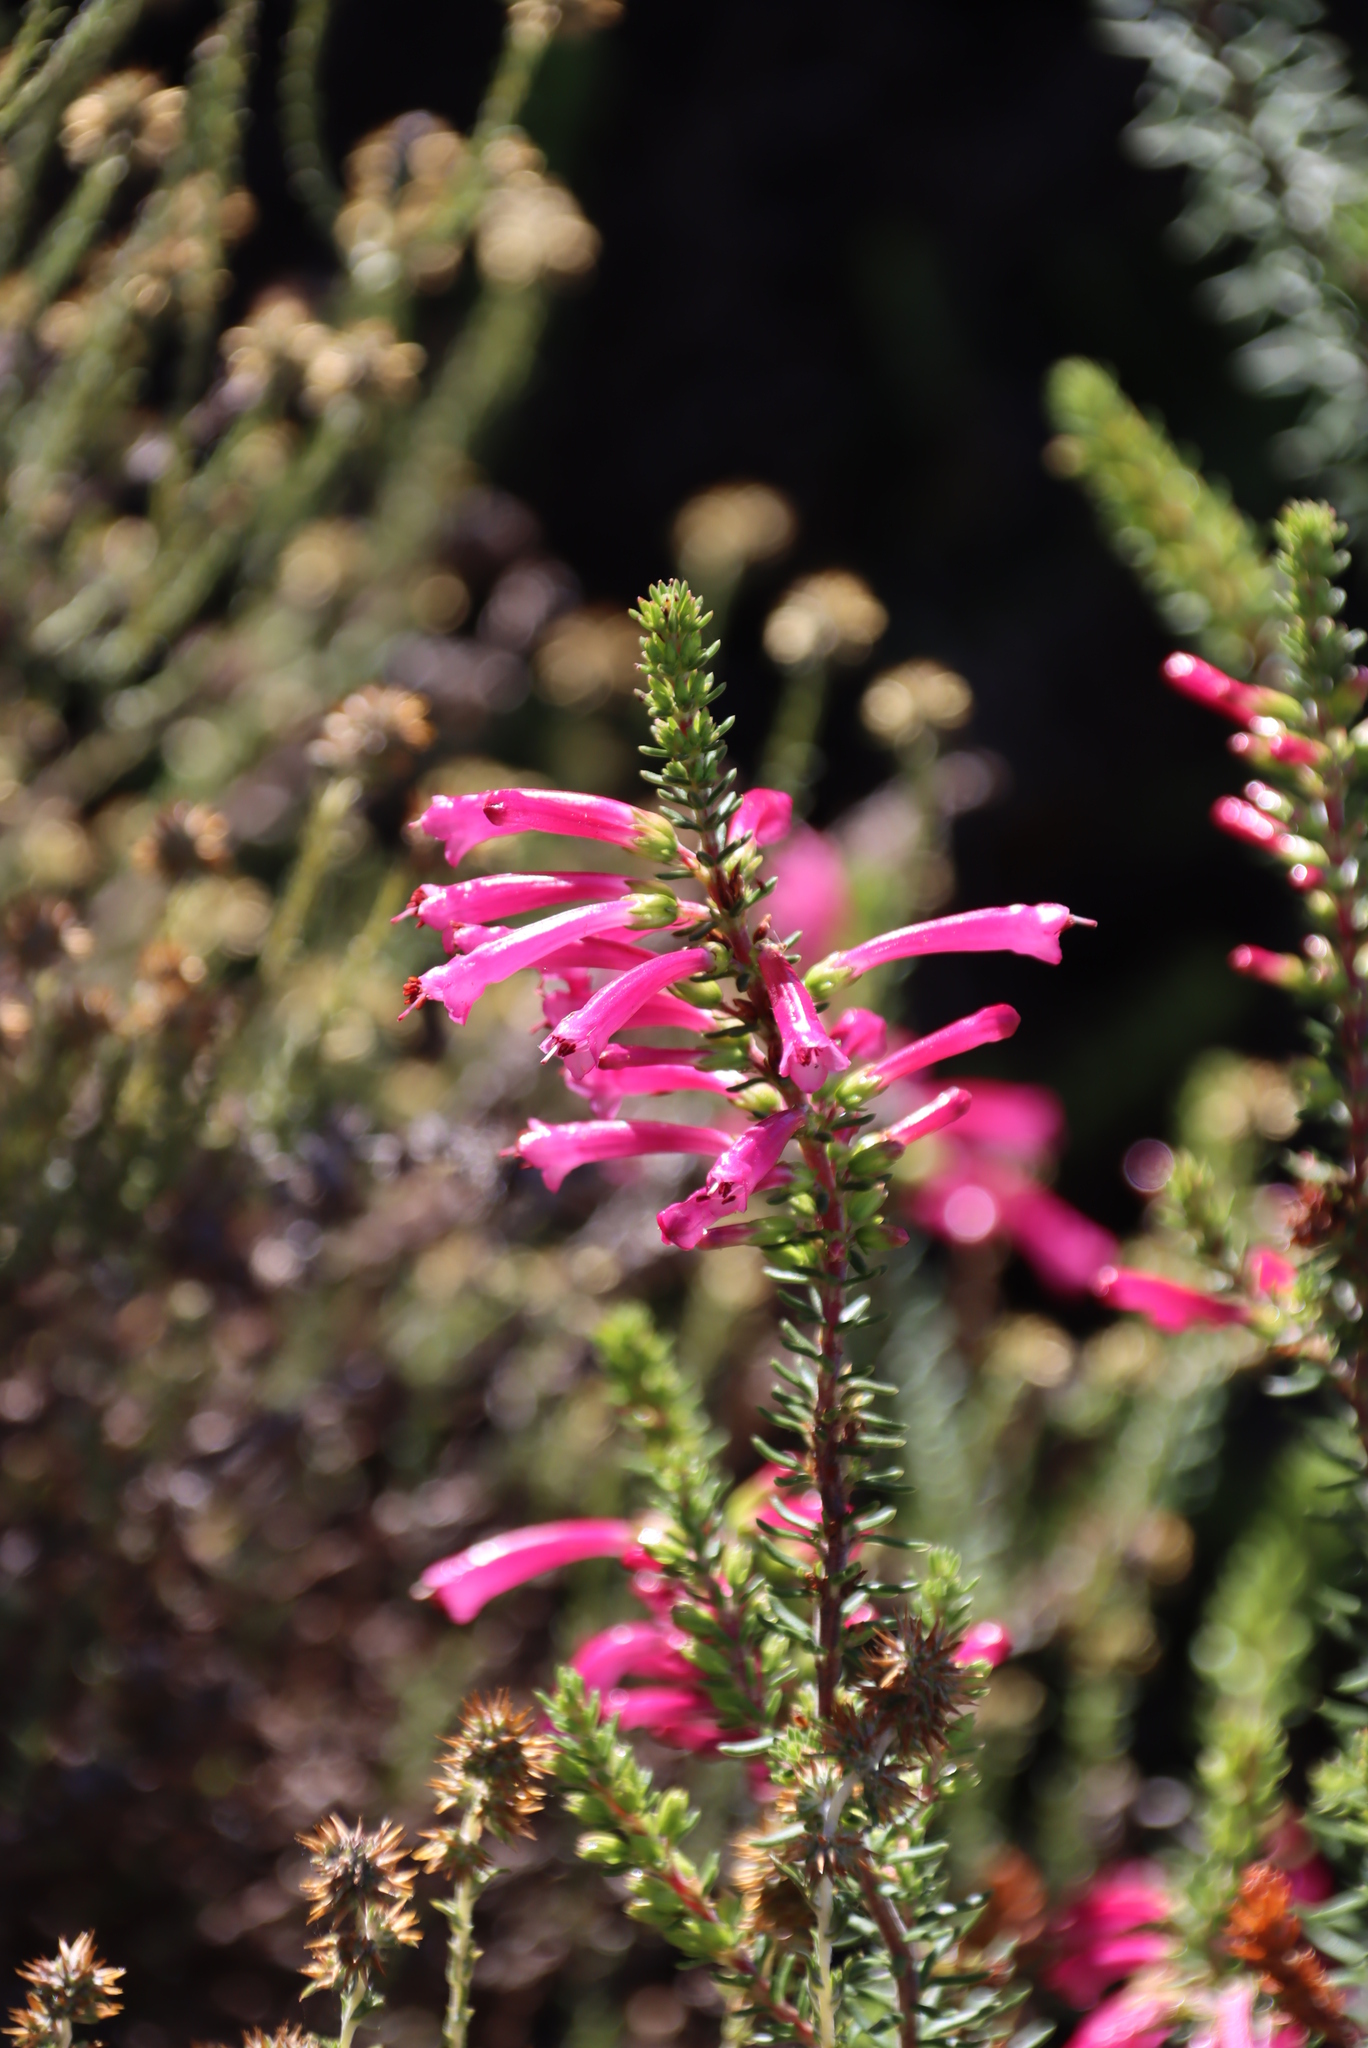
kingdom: Plantae
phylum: Tracheophyta
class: Magnoliopsida
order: Ericales
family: Ericaceae
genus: Erica
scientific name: Erica abietina
